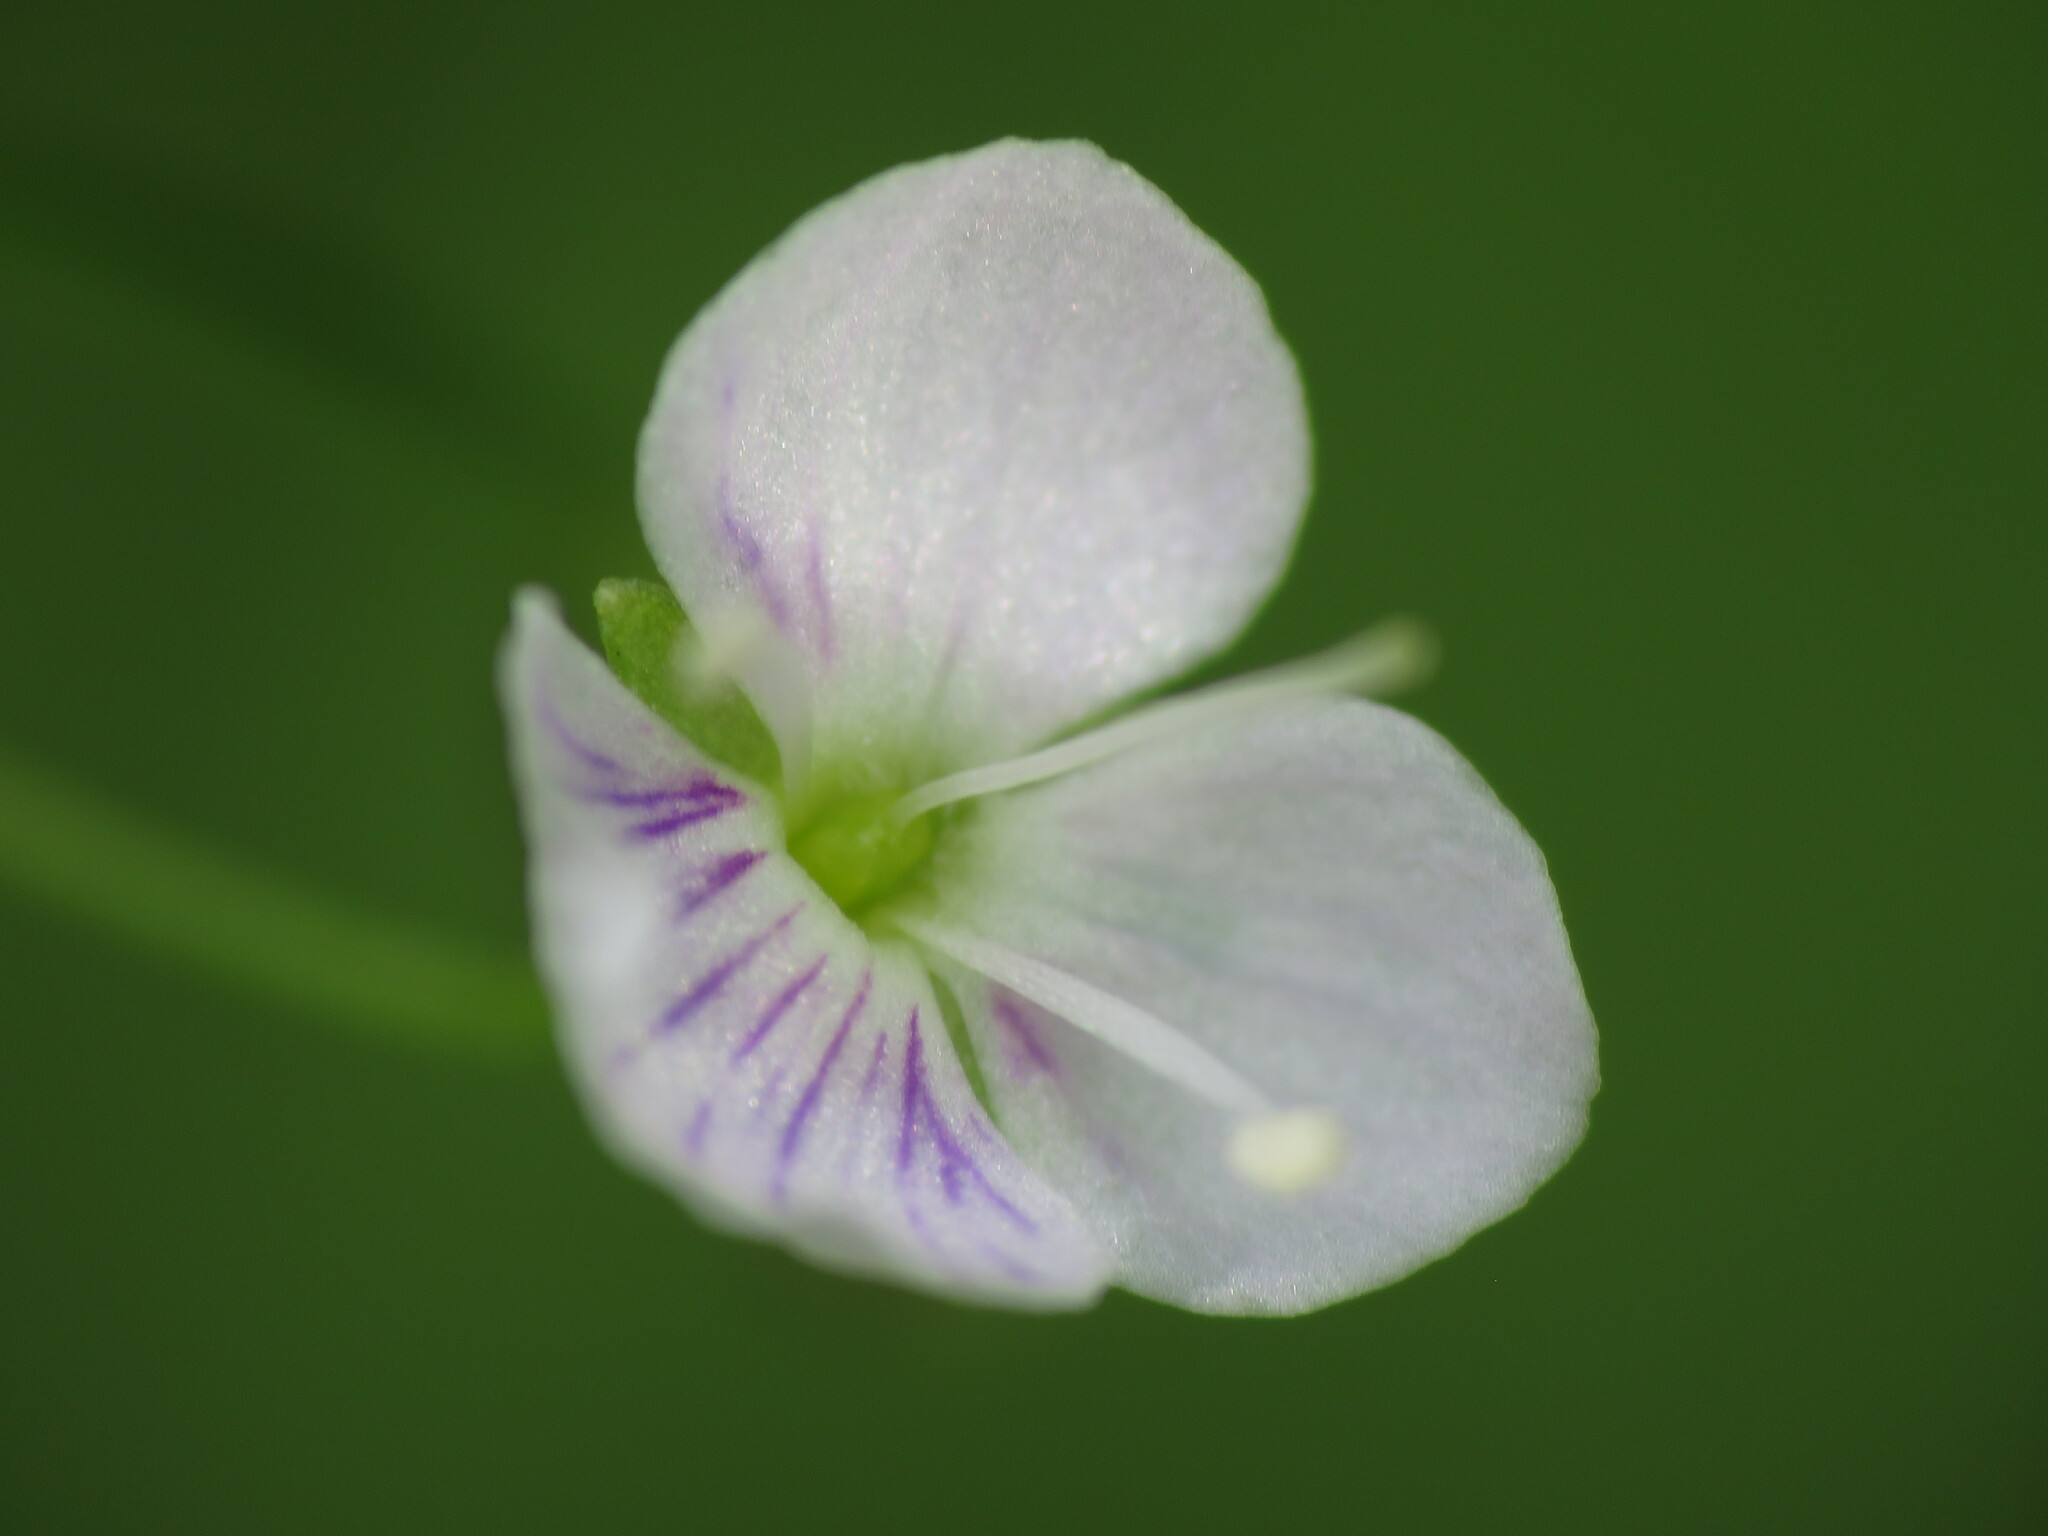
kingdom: Plantae
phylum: Tracheophyta
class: Magnoliopsida
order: Lamiales
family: Plantaginaceae
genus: Veronica
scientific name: Veronica scutellata
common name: Marsh speedwell
